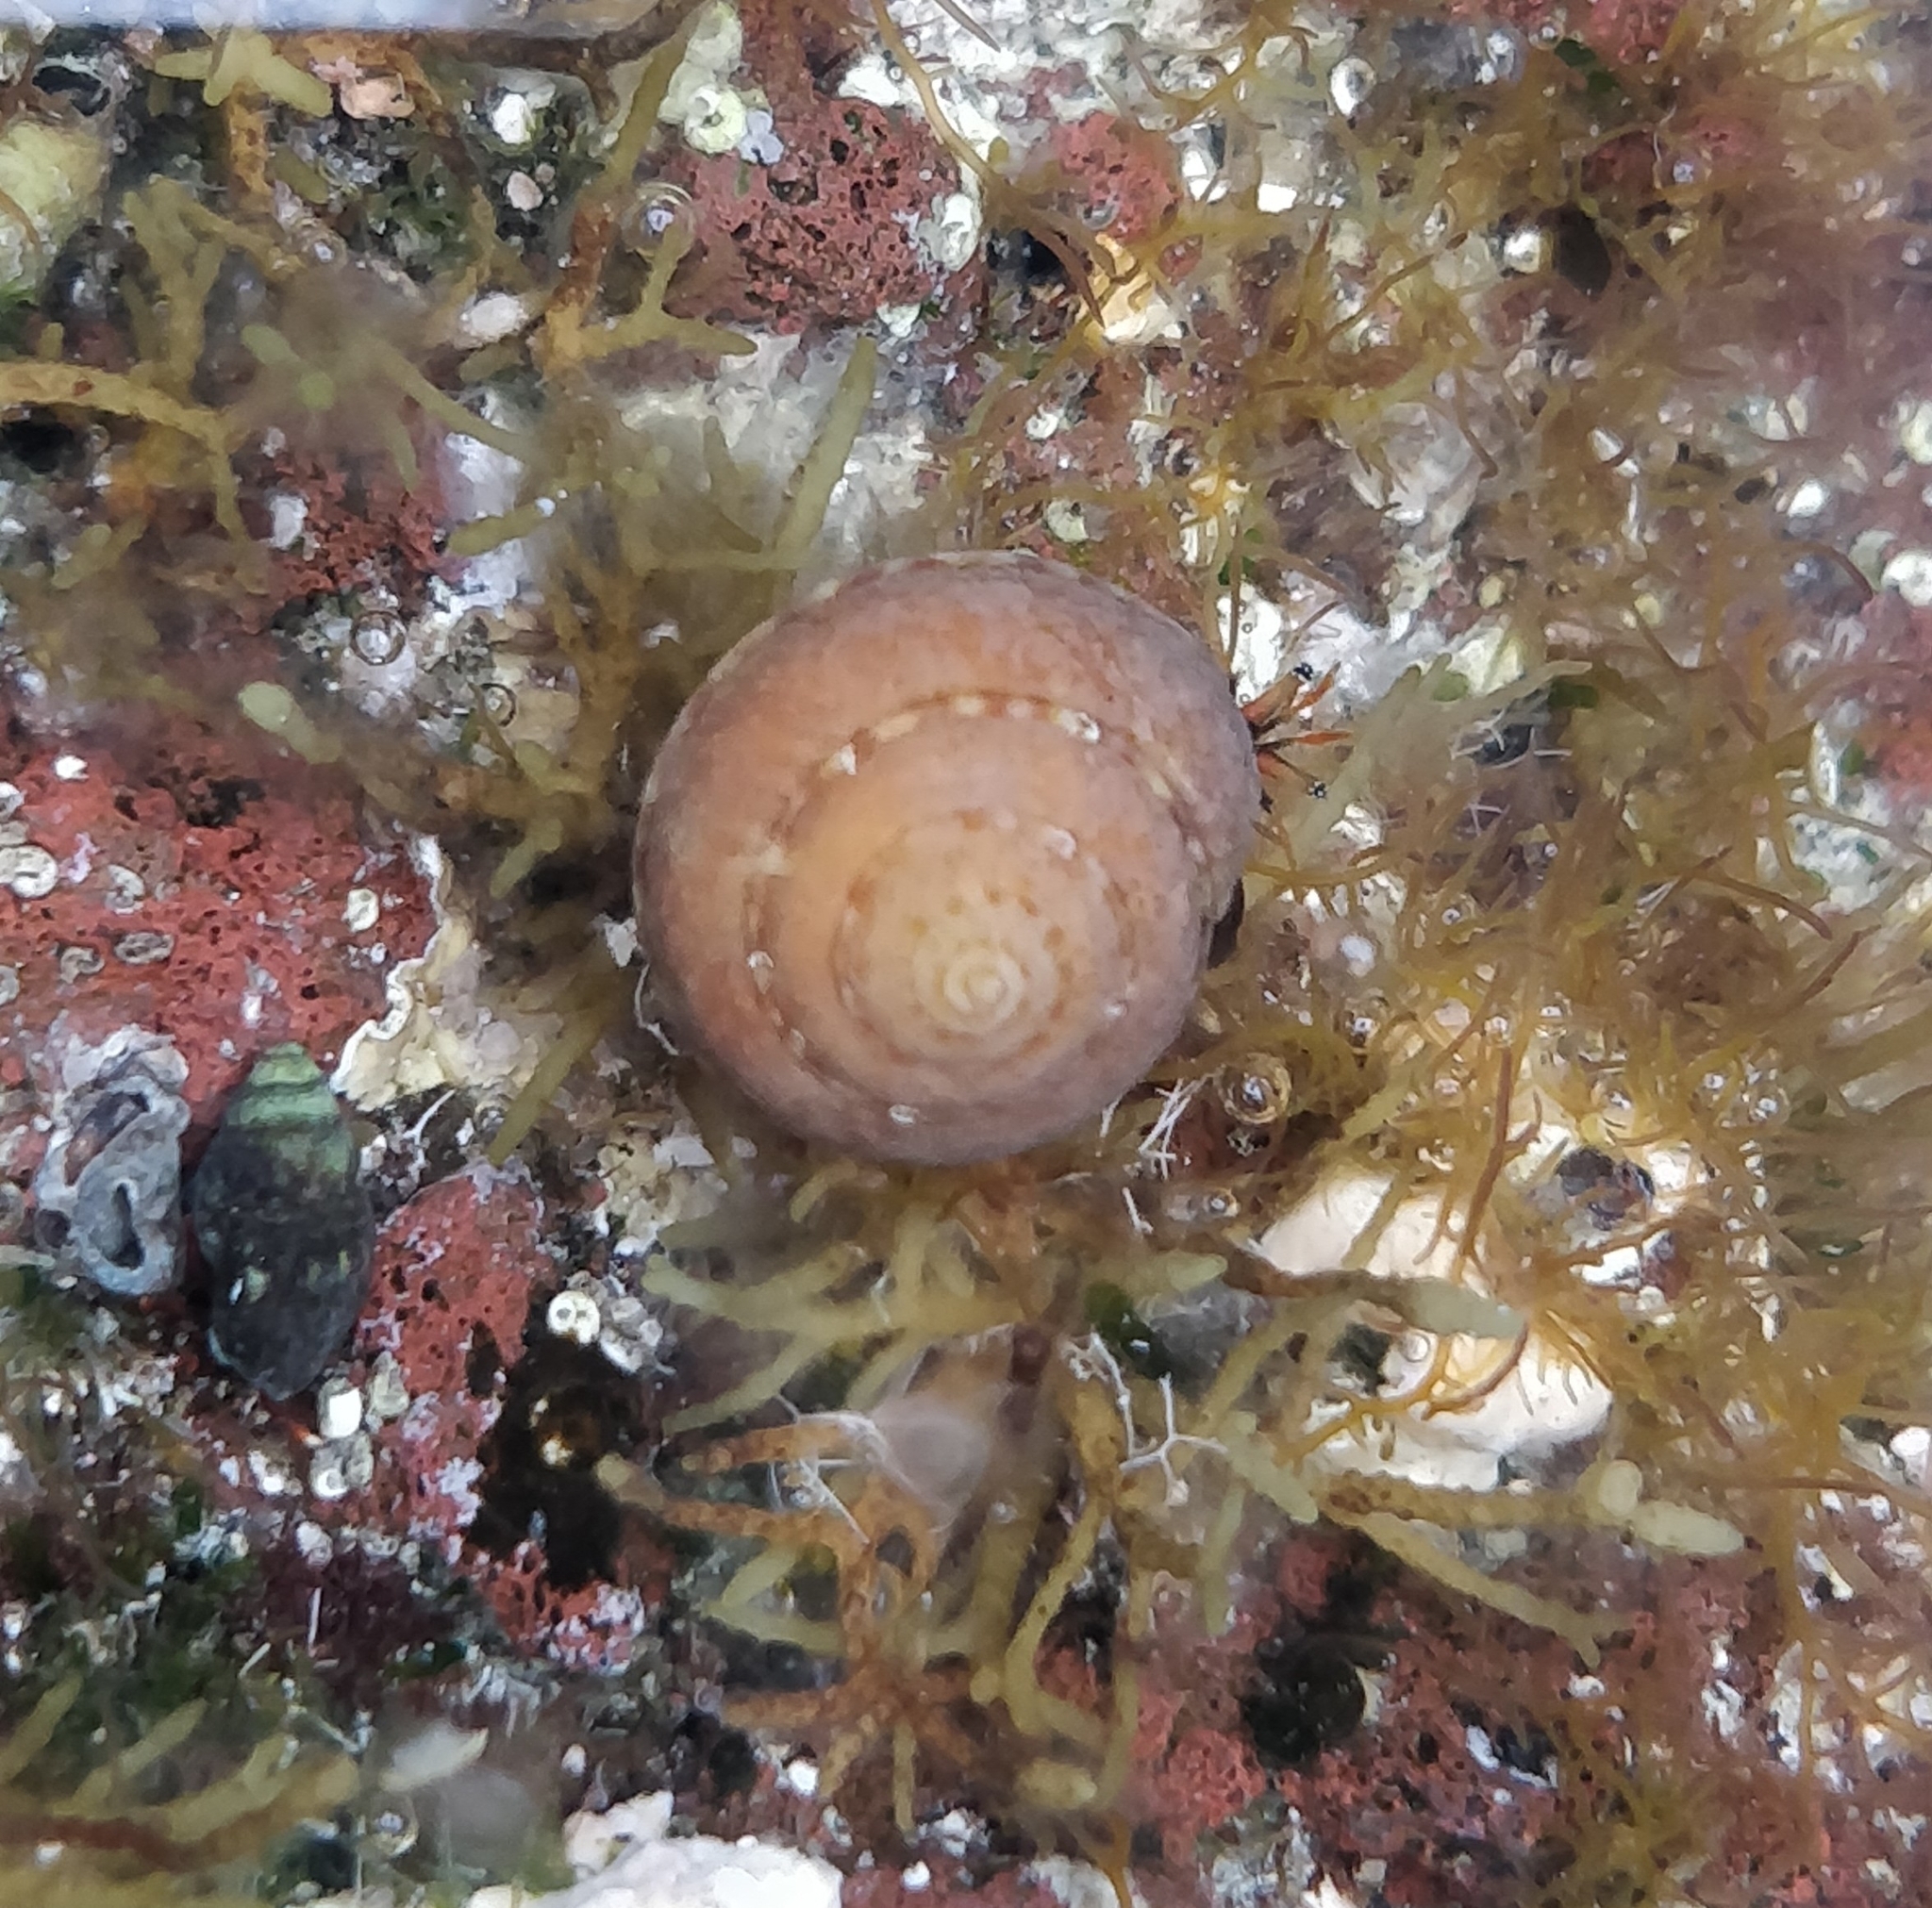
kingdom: Animalia
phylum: Mollusca
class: Gastropoda
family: Architectonicidae
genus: Philippia
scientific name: Philippia hybrida
